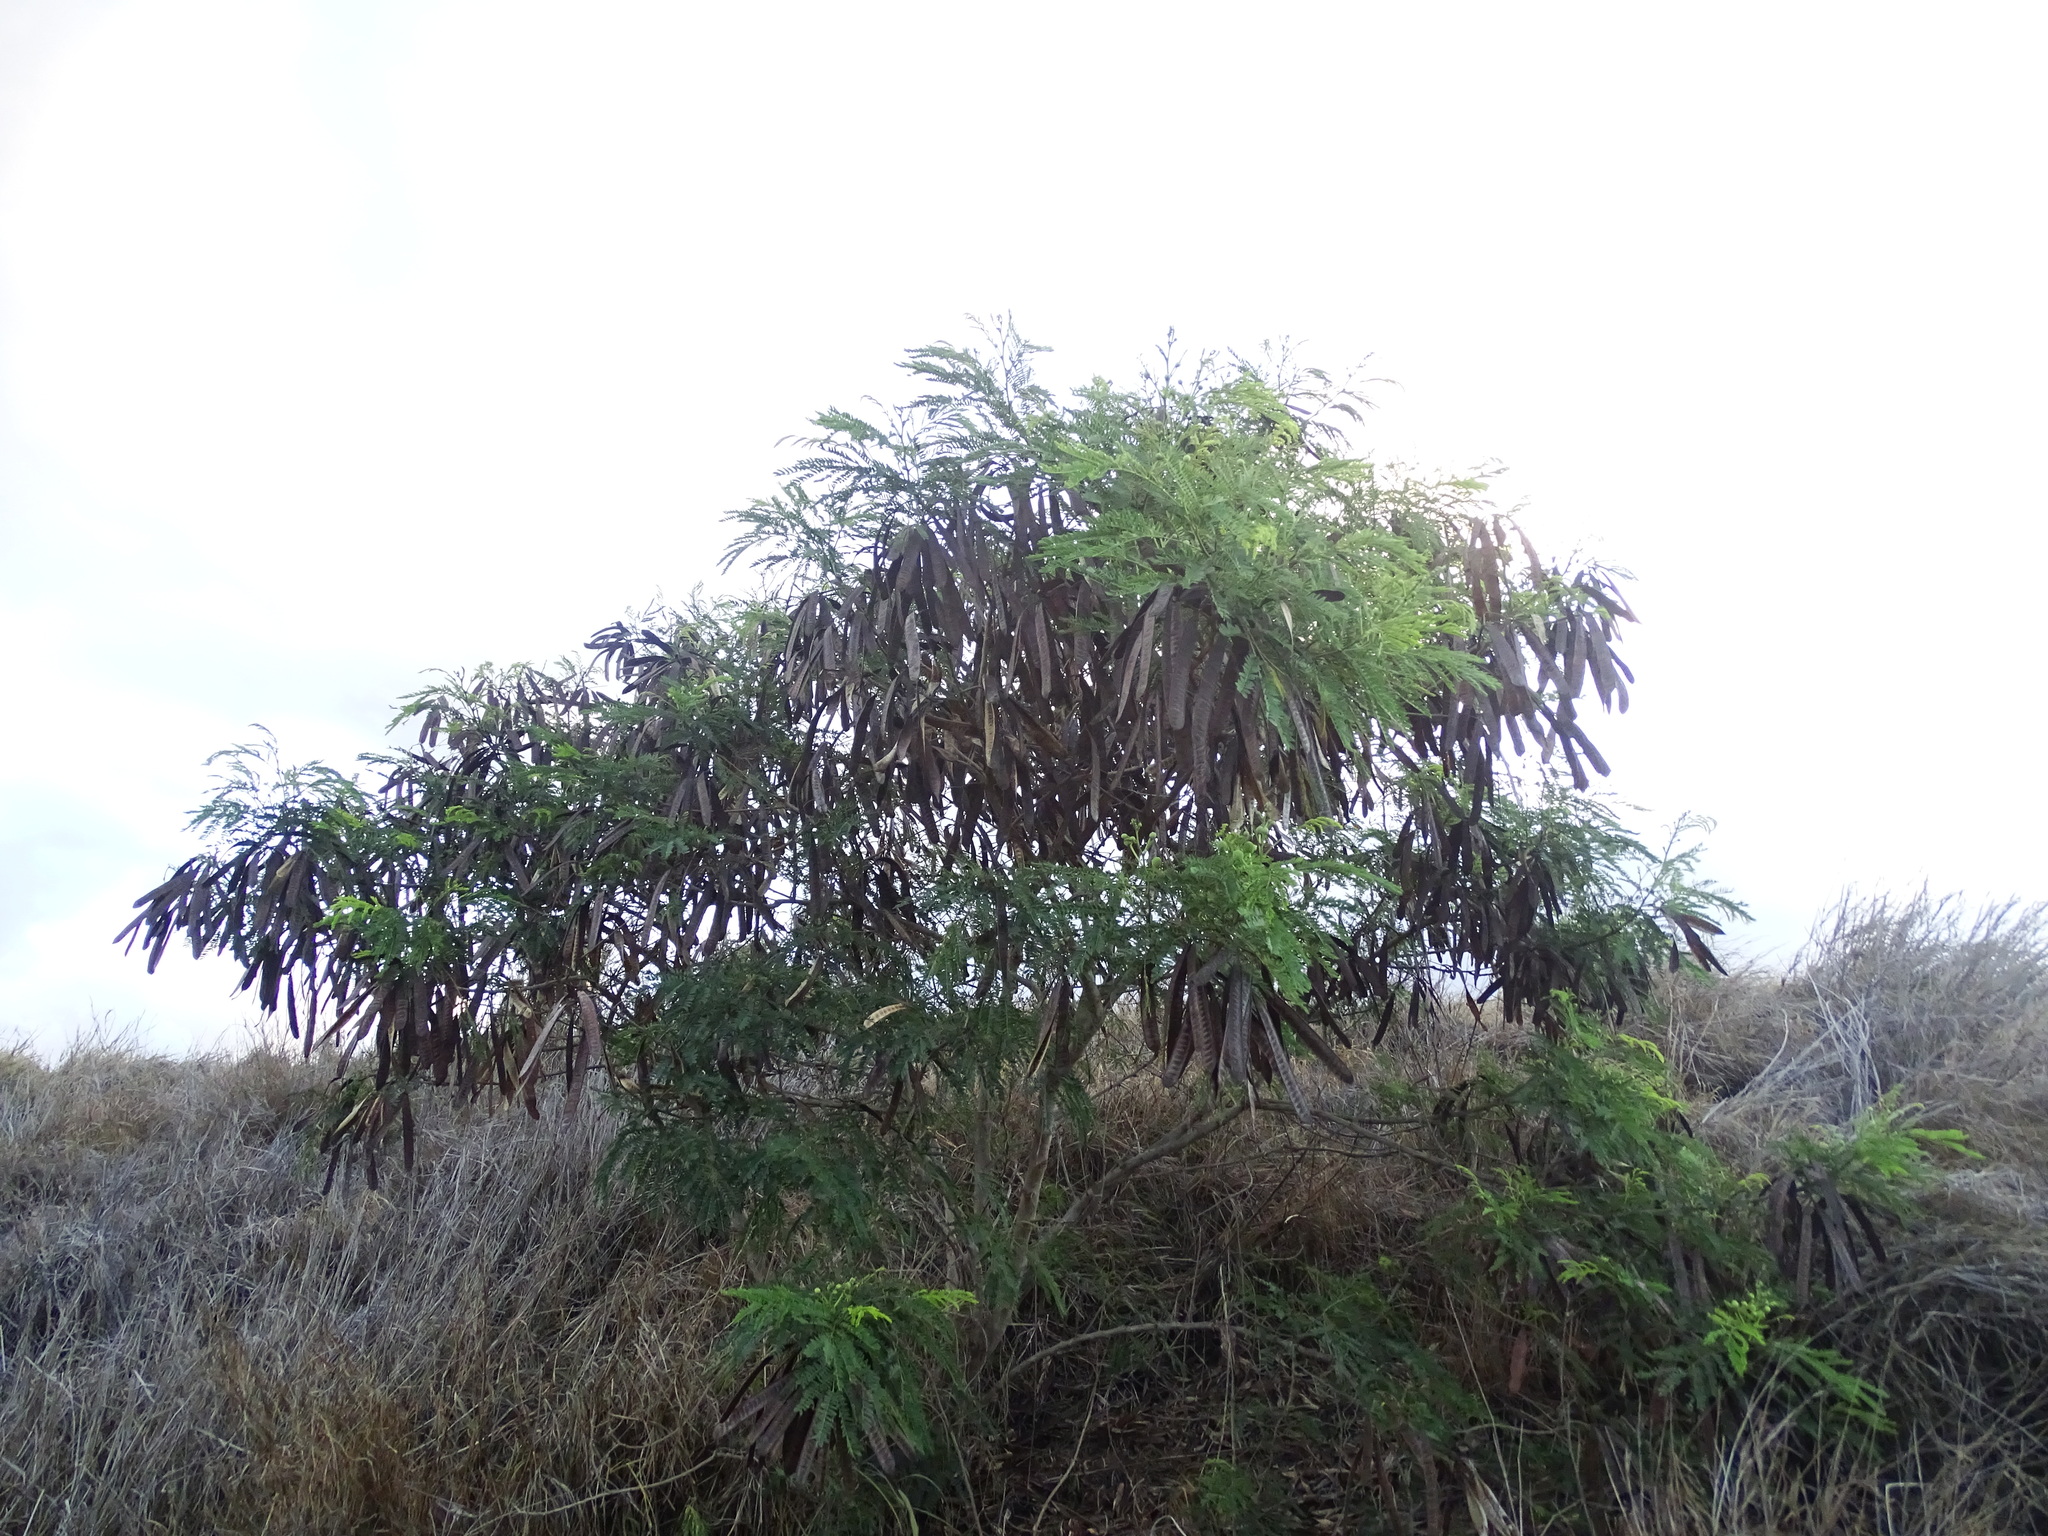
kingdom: Plantae
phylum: Tracheophyta
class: Magnoliopsida
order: Fabales
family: Fabaceae
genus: Leucaena
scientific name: Leucaena leucocephala
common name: White leadtree
